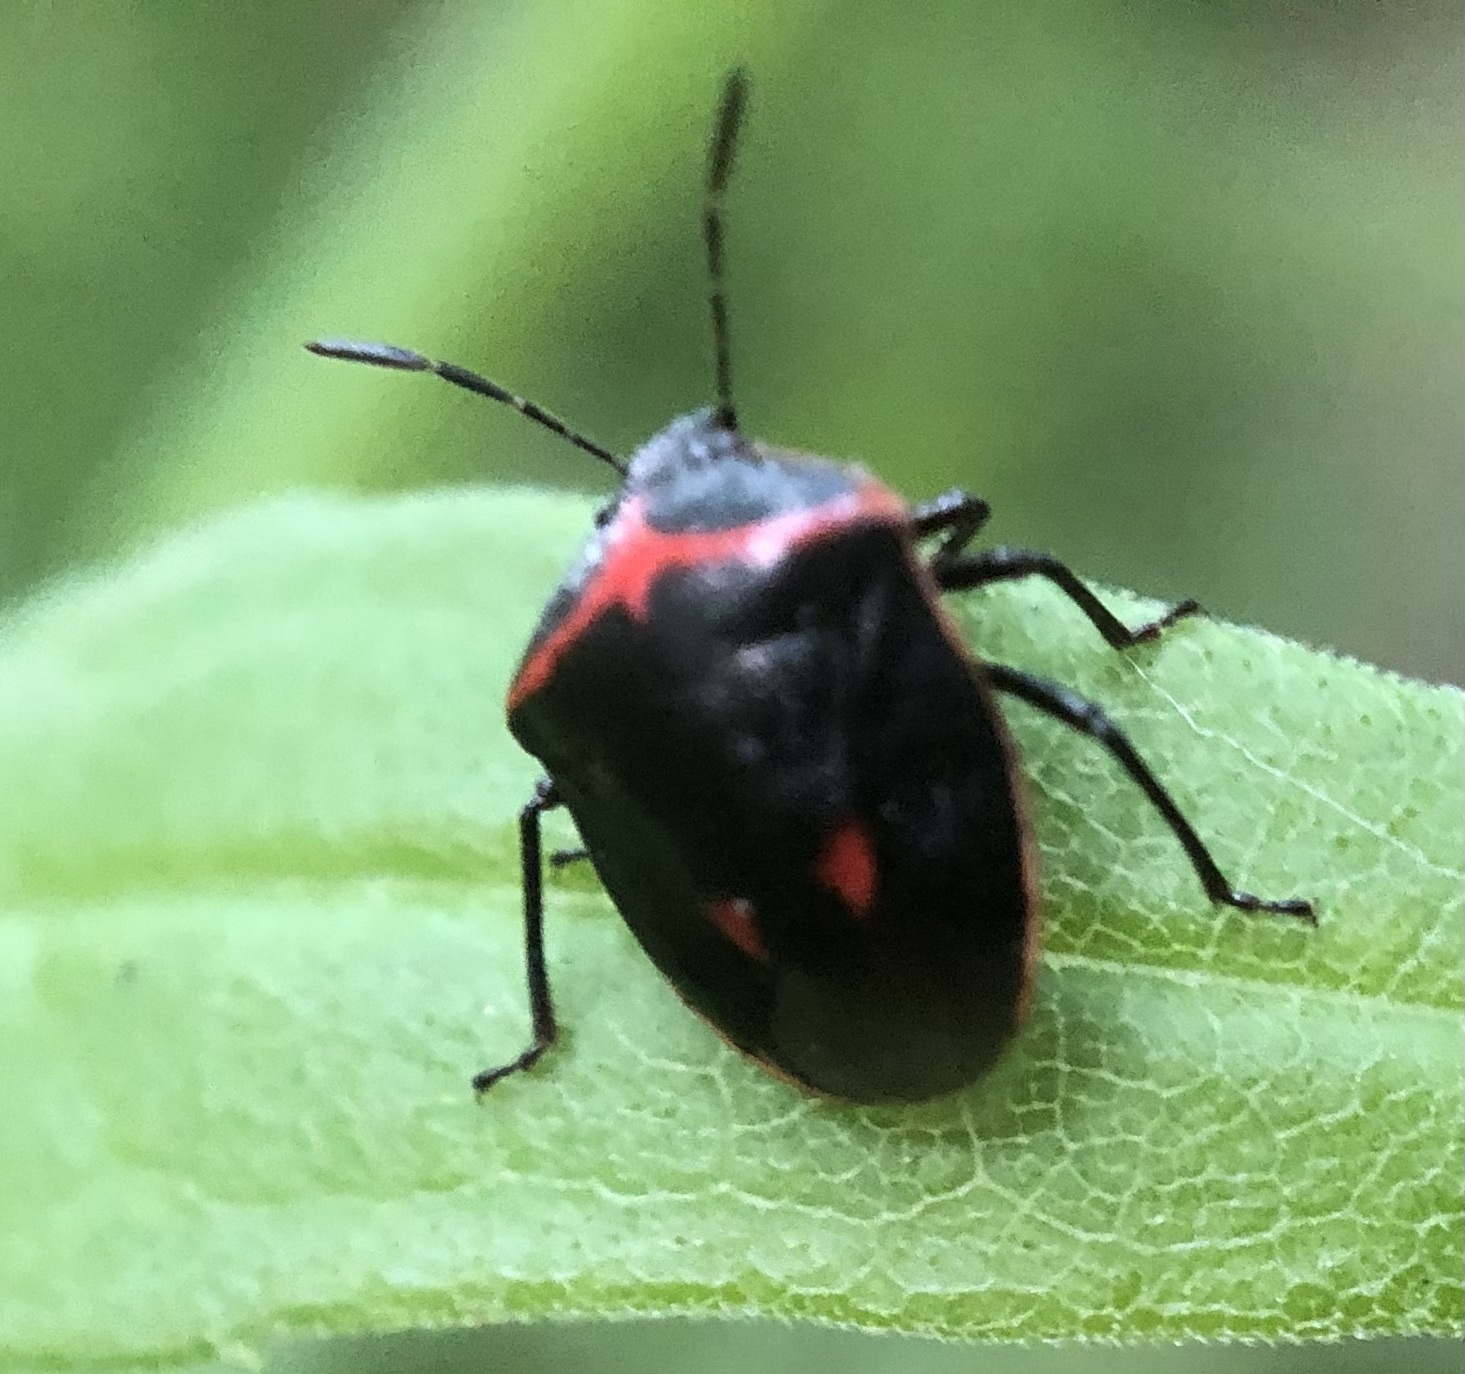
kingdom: Animalia
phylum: Arthropoda
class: Insecta
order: Hemiptera
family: Pentatomidae
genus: Cosmopepla
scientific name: Cosmopepla lintneriana
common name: Twice-stabbed stink bug
